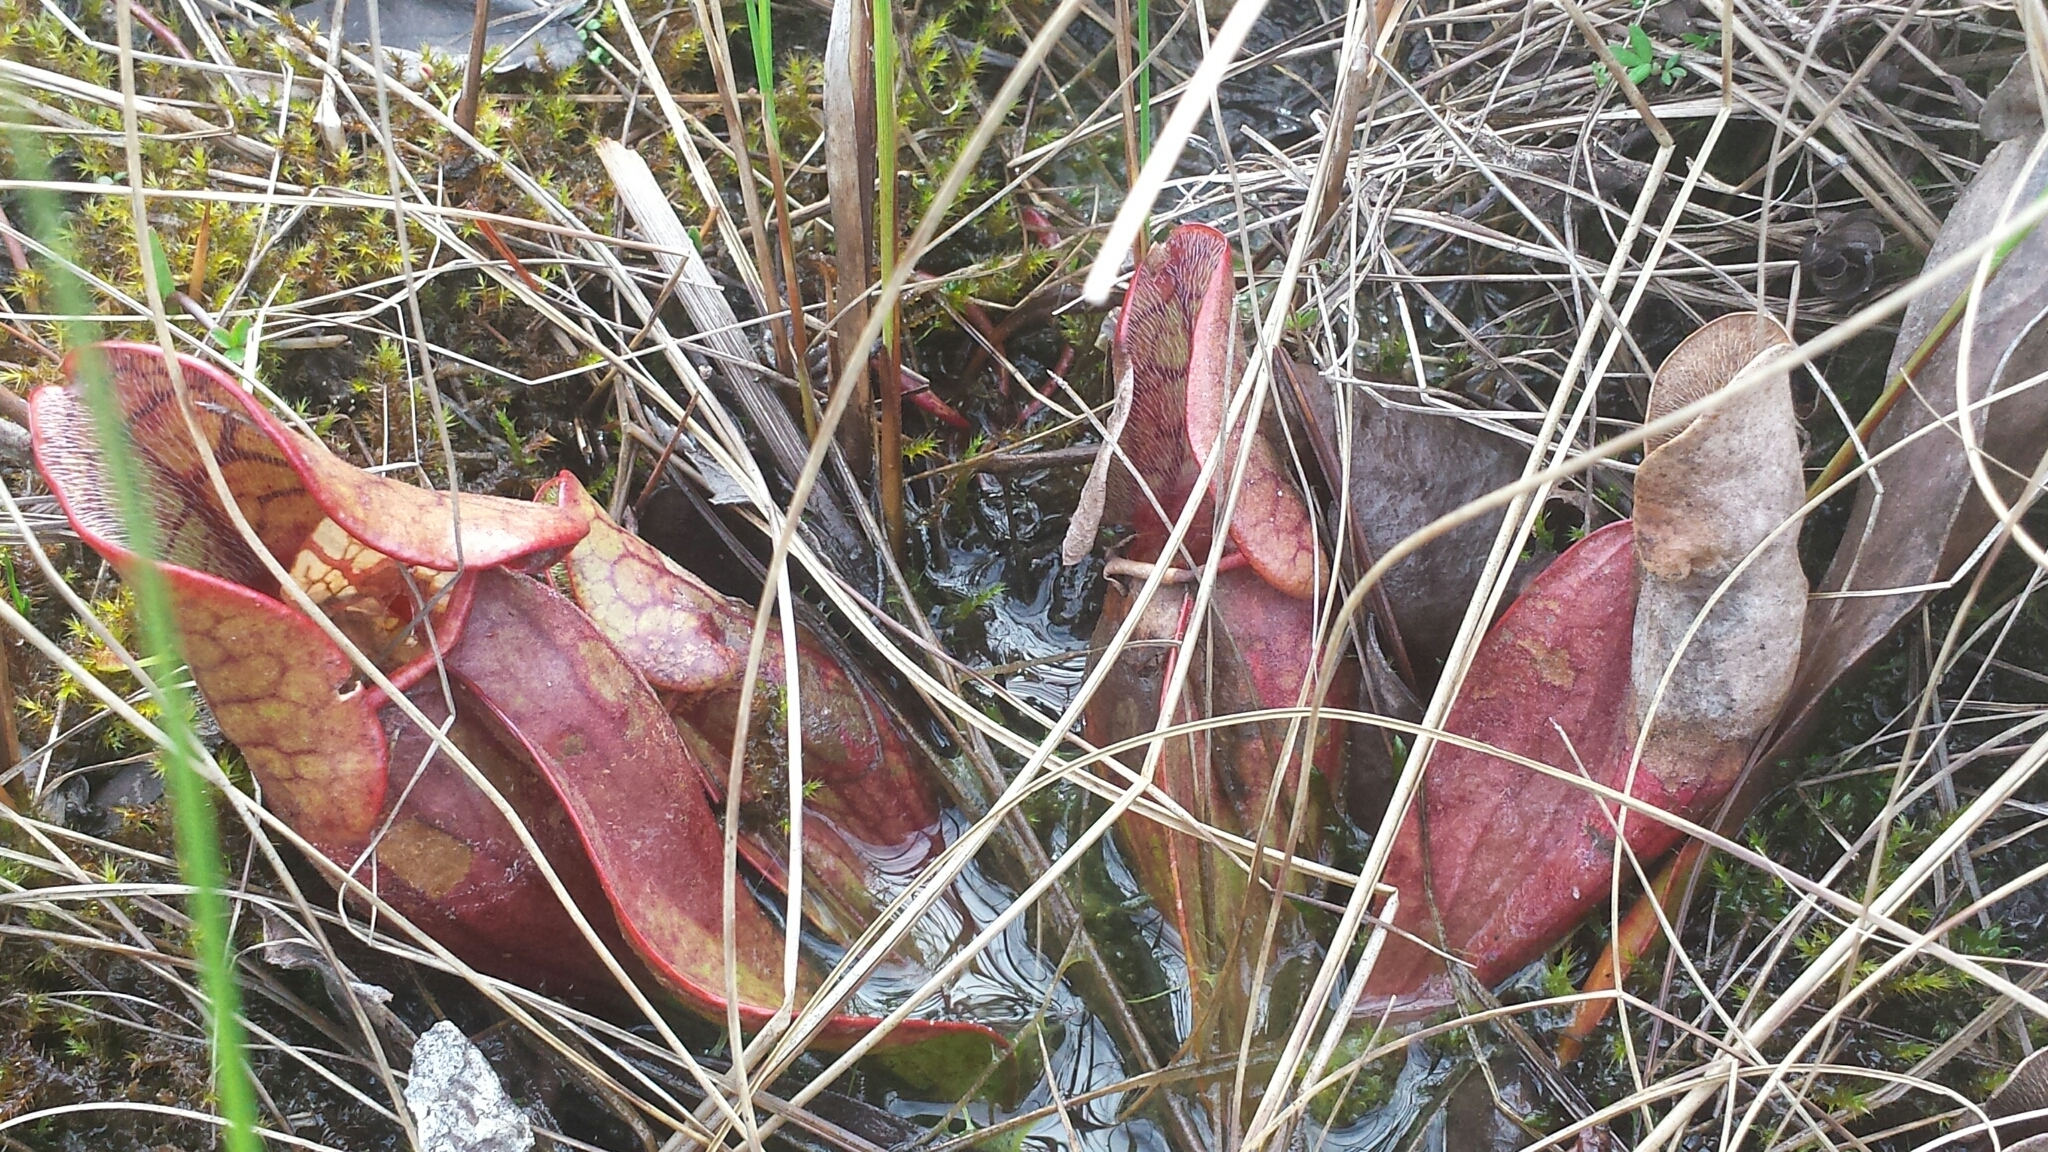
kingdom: Plantae
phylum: Tracheophyta
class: Magnoliopsida
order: Ericales
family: Sarraceniaceae
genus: Sarracenia
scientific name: Sarracenia purpurea
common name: Pitcherplant
